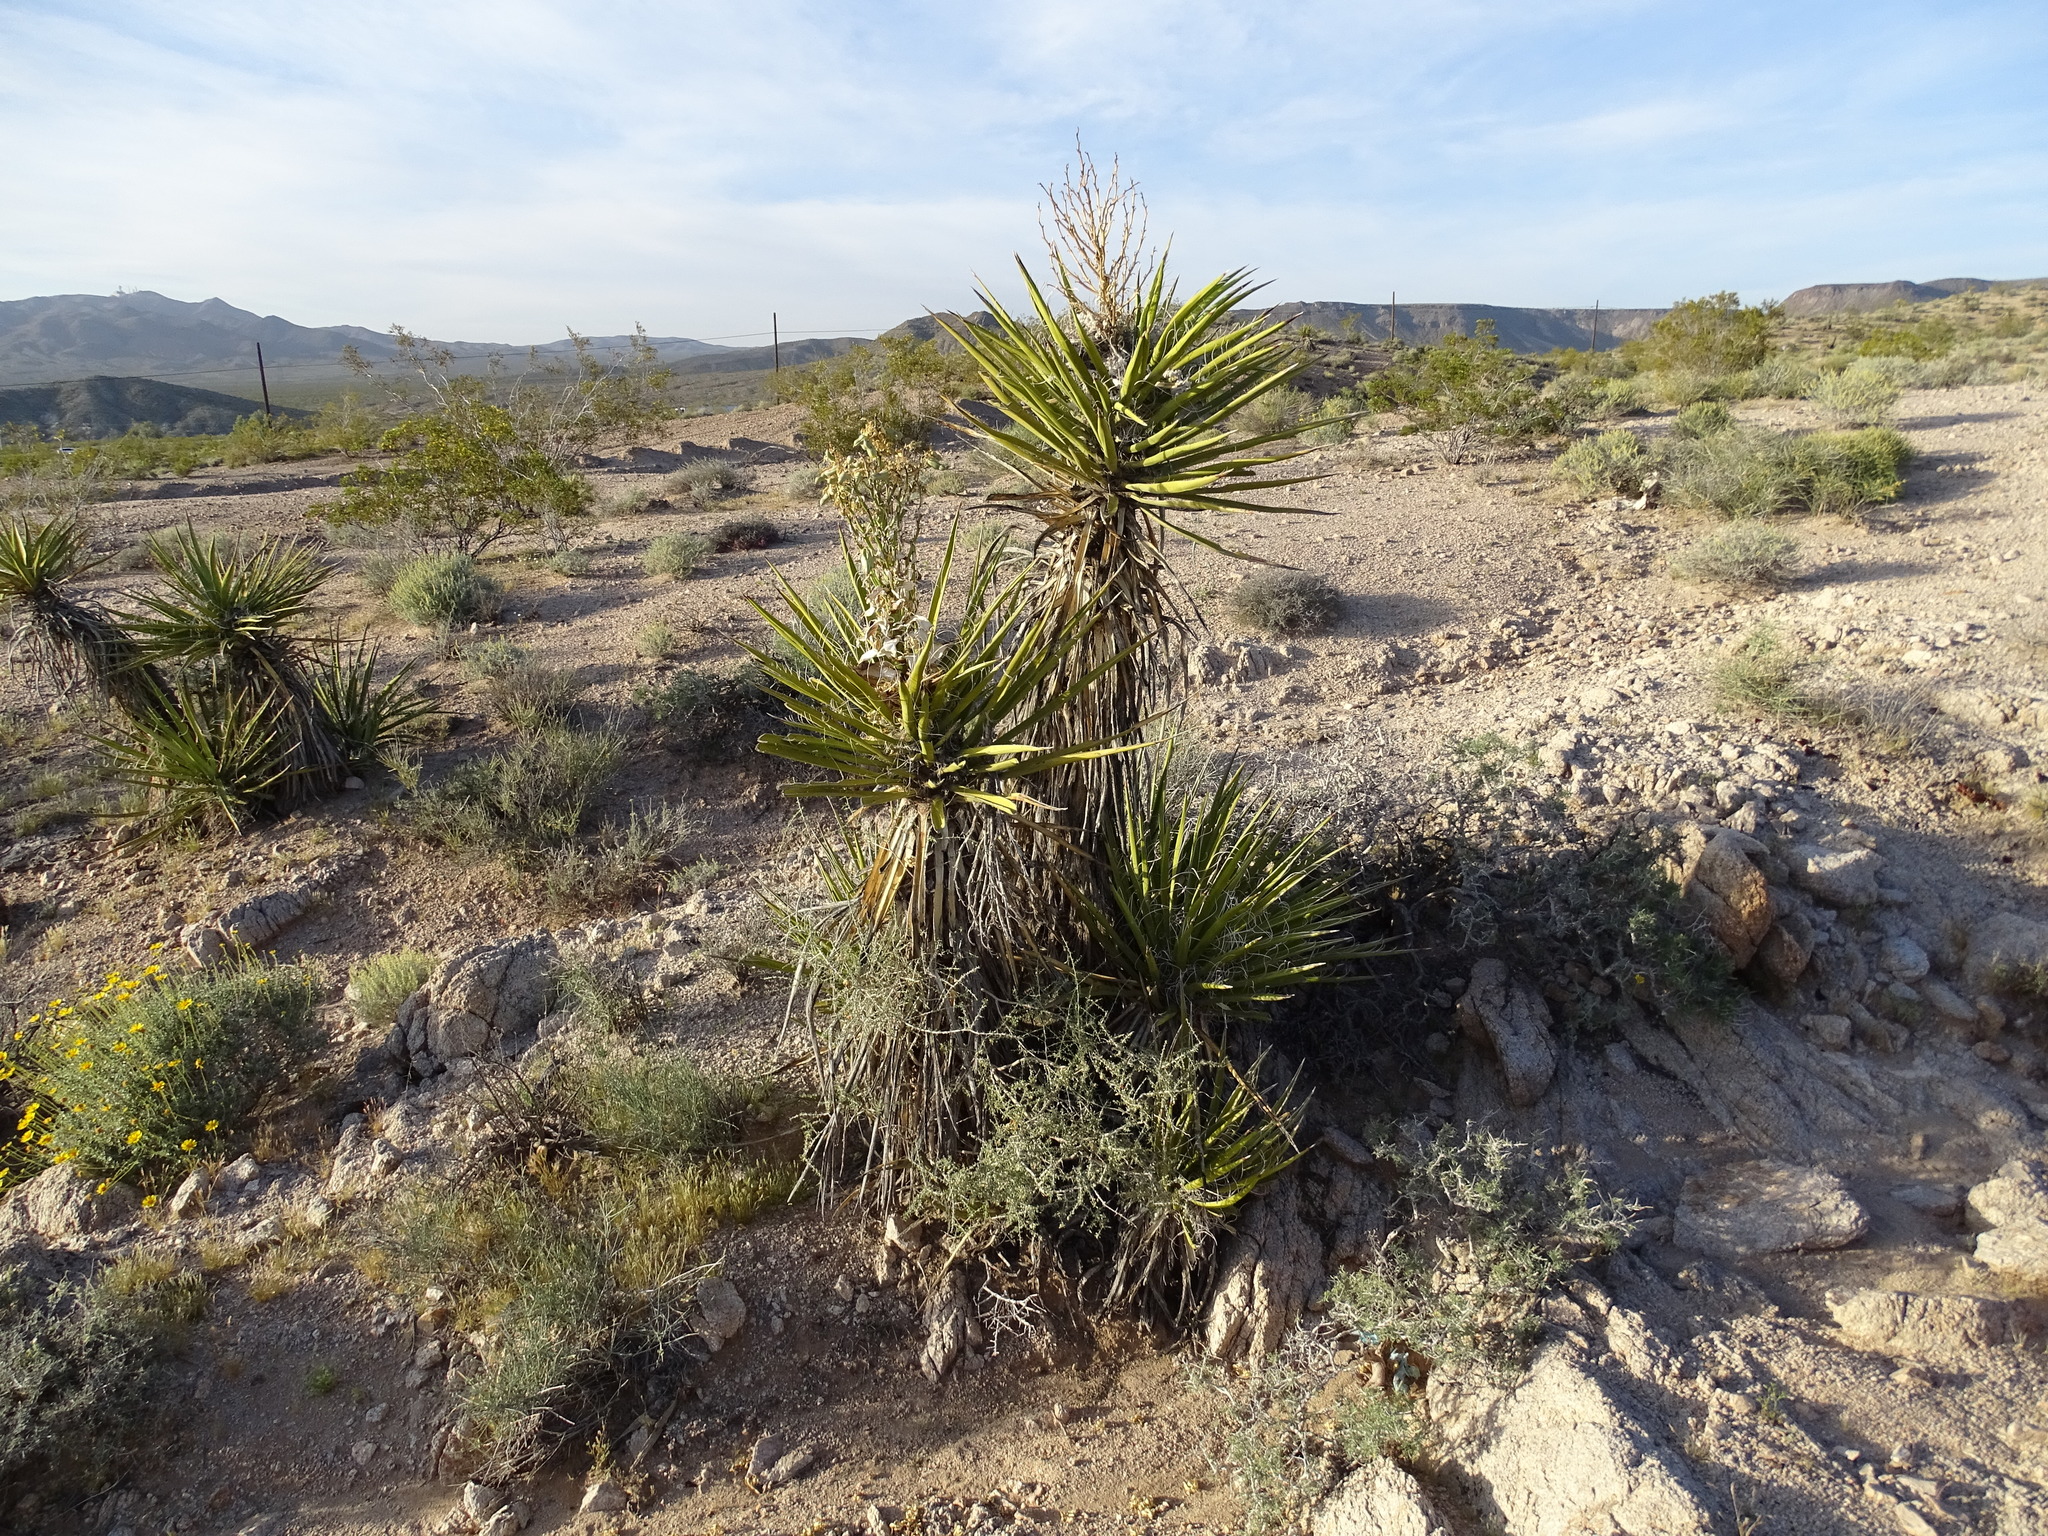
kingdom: Plantae
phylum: Tracheophyta
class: Liliopsida
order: Asparagales
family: Asparagaceae
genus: Yucca
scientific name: Yucca schidigera
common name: Mojave yucca
